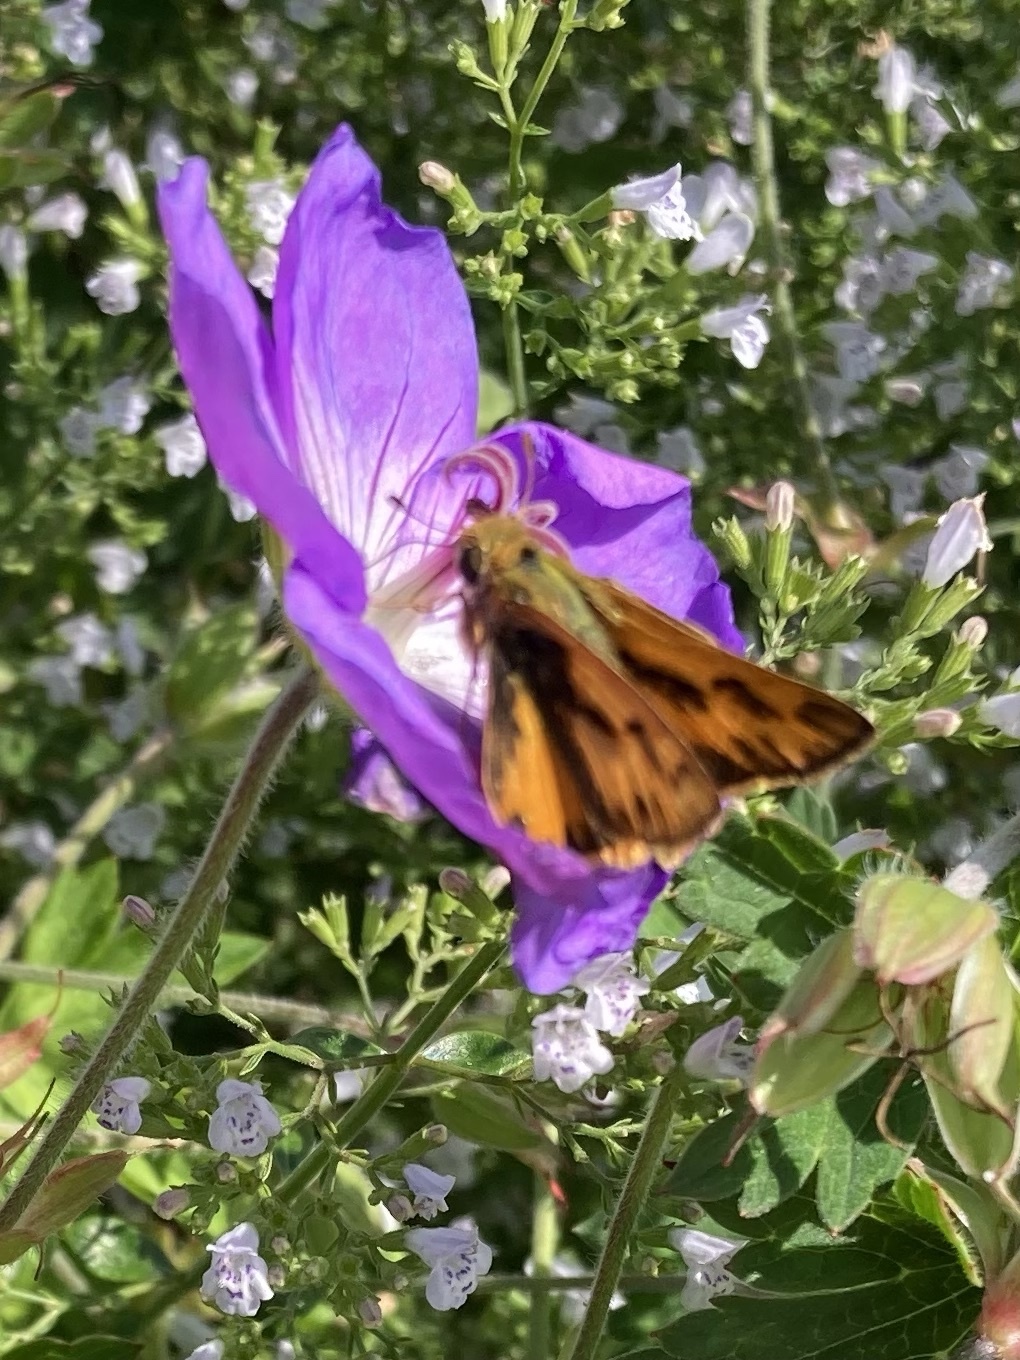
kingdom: Animalia
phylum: Arthropoda
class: Insecta
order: Lepidoptera
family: Hesperiidae
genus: Hylephila
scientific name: Hylephila phyleus
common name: Fiery skipper
